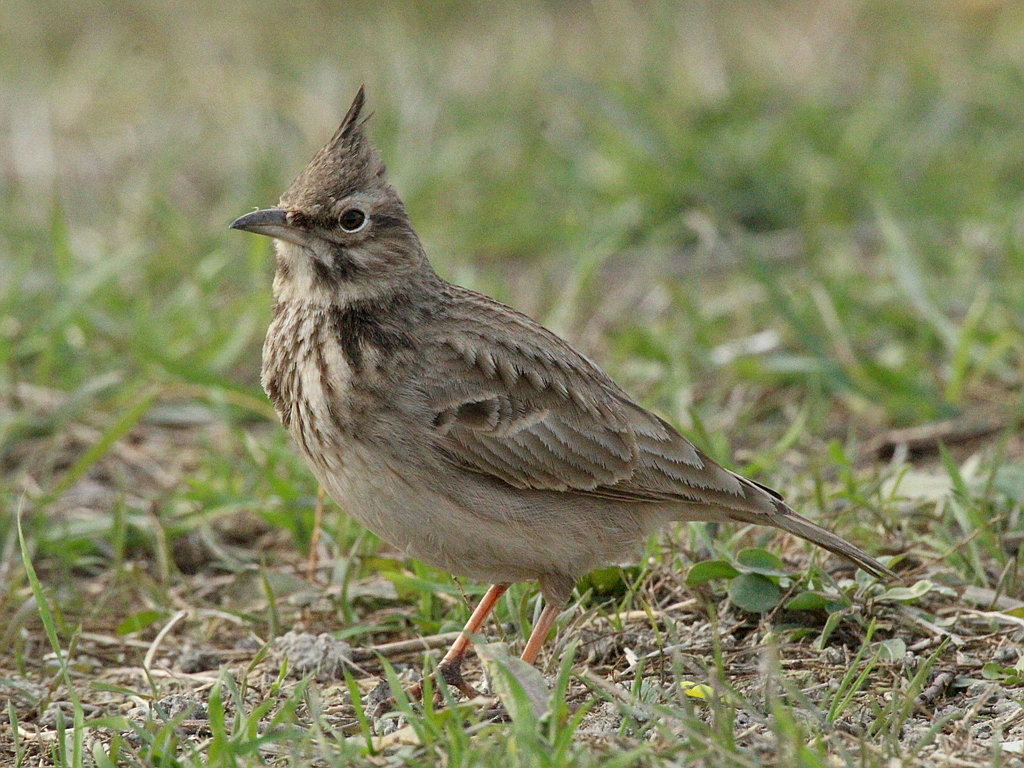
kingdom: Animalia
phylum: Chordata
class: Aves
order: Passeriformes
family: Alaudidae
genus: Galerida
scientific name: Galerida cristata
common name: Crested lark
